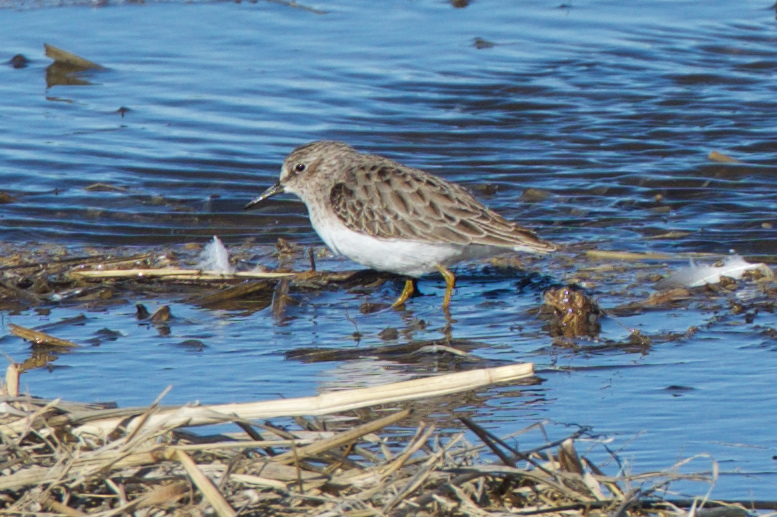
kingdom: Animalia
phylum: Chordata
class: Aves
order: Charadriiformes
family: Scolopacidae
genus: Calidris
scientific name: Calidris minutilla
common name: Least sandpiper
